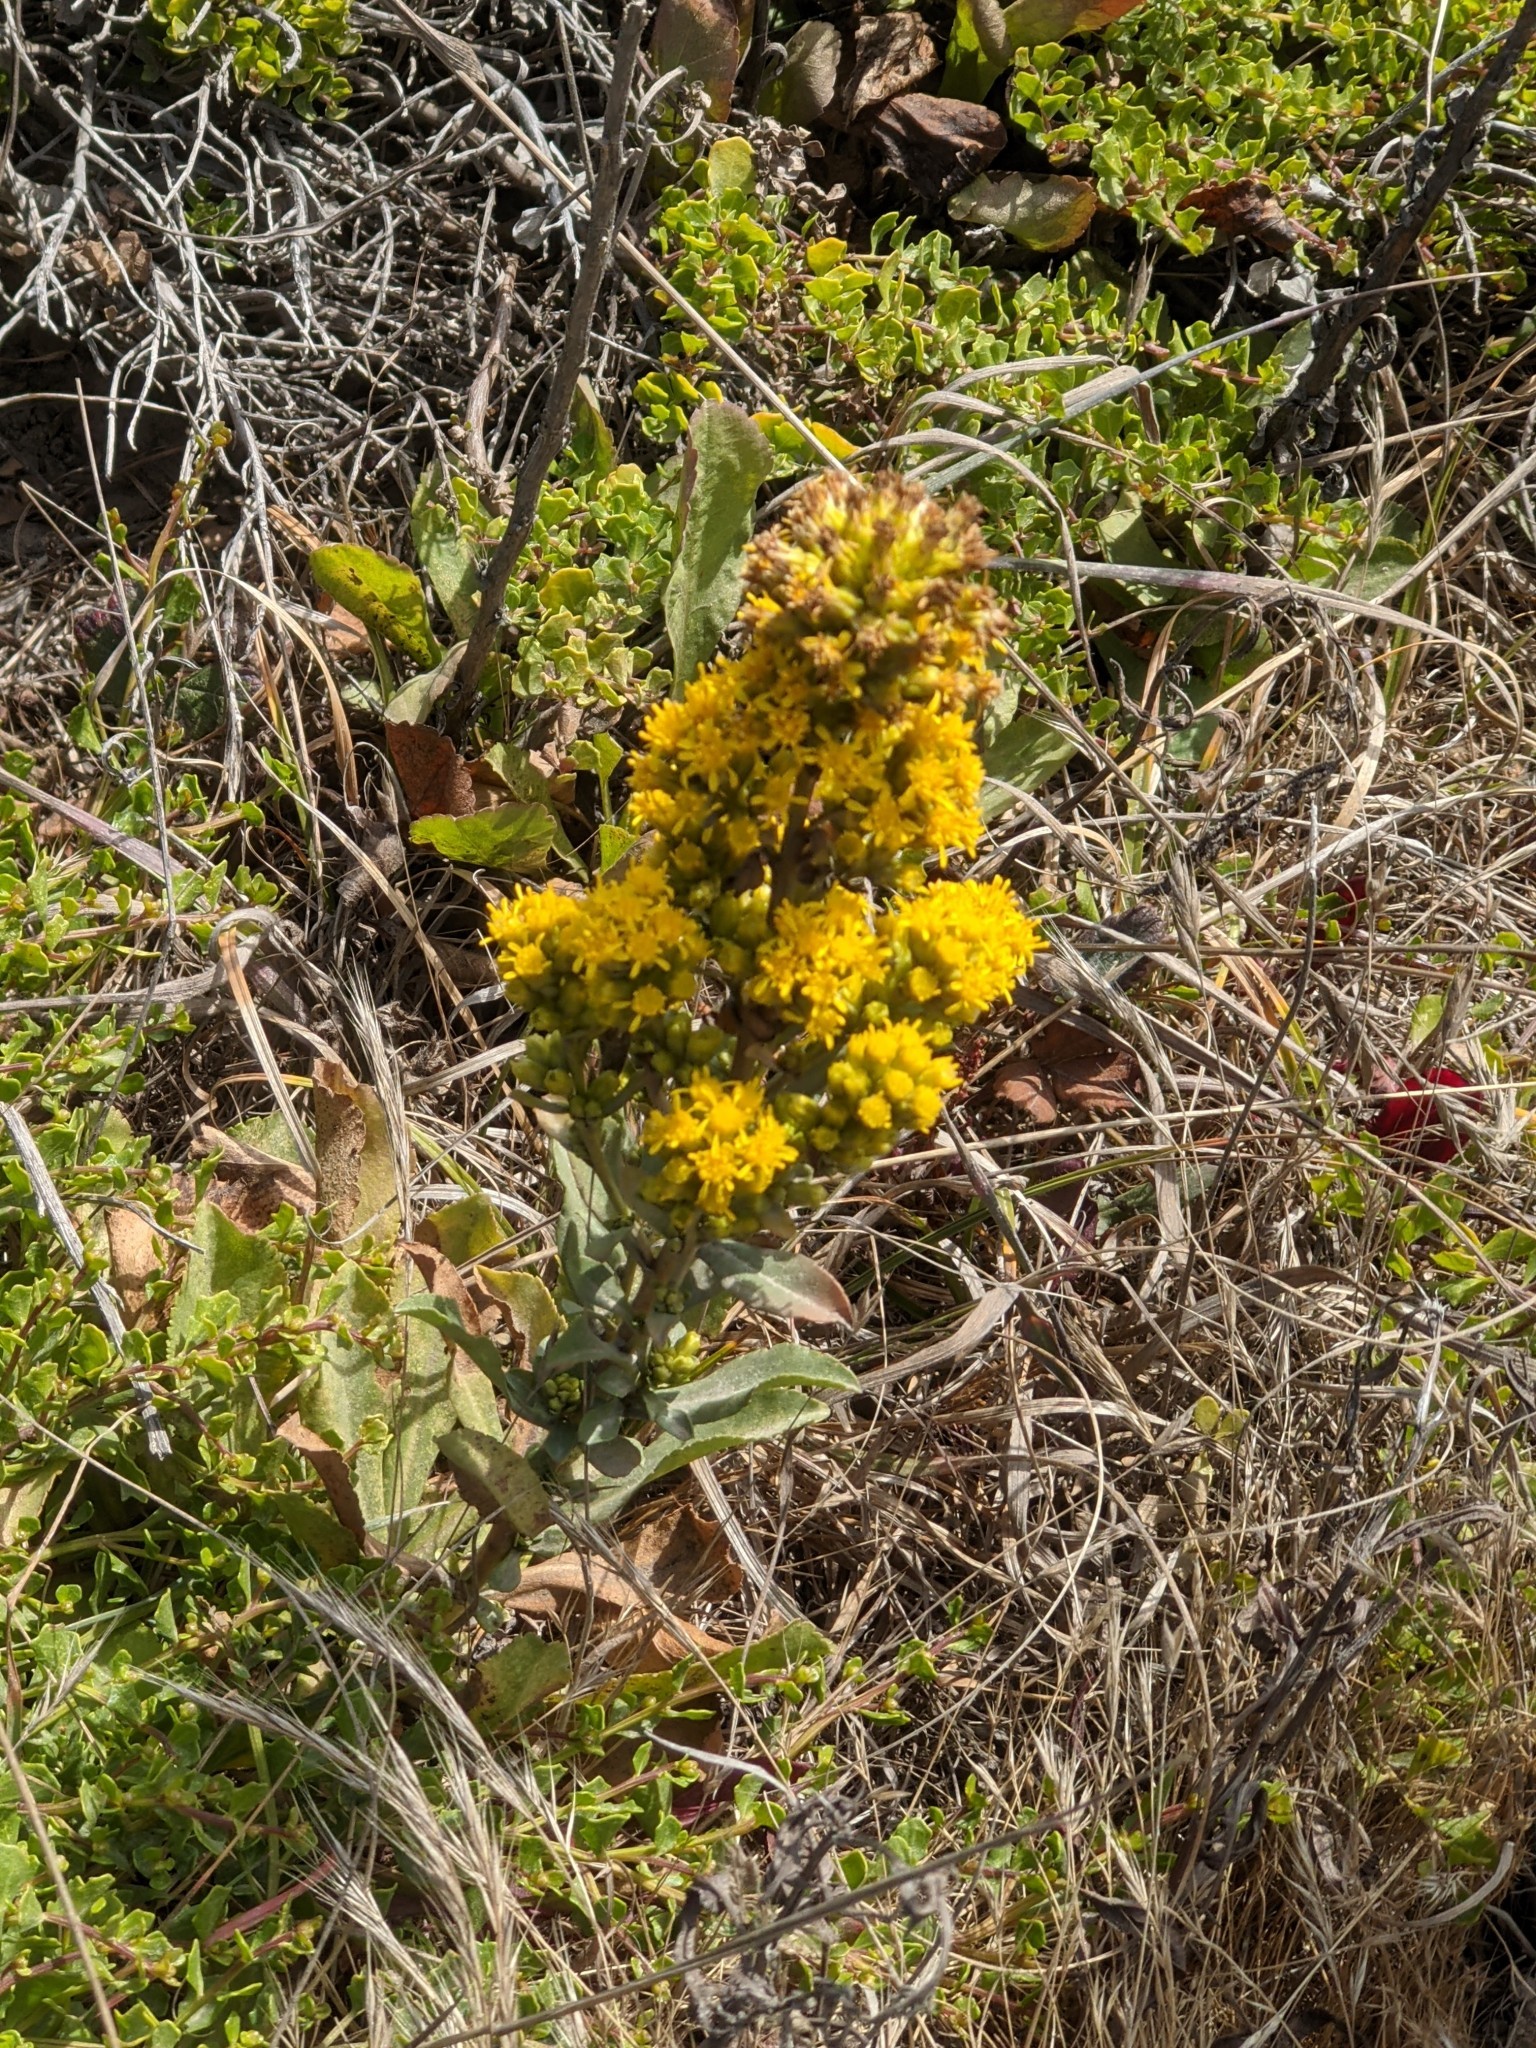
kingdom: Plantae
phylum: Tracheophyta
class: Magnoliopsida
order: Asterales
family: Asteraceae
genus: Solidago
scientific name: Solidago spathulata
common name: Coast goldenrod
